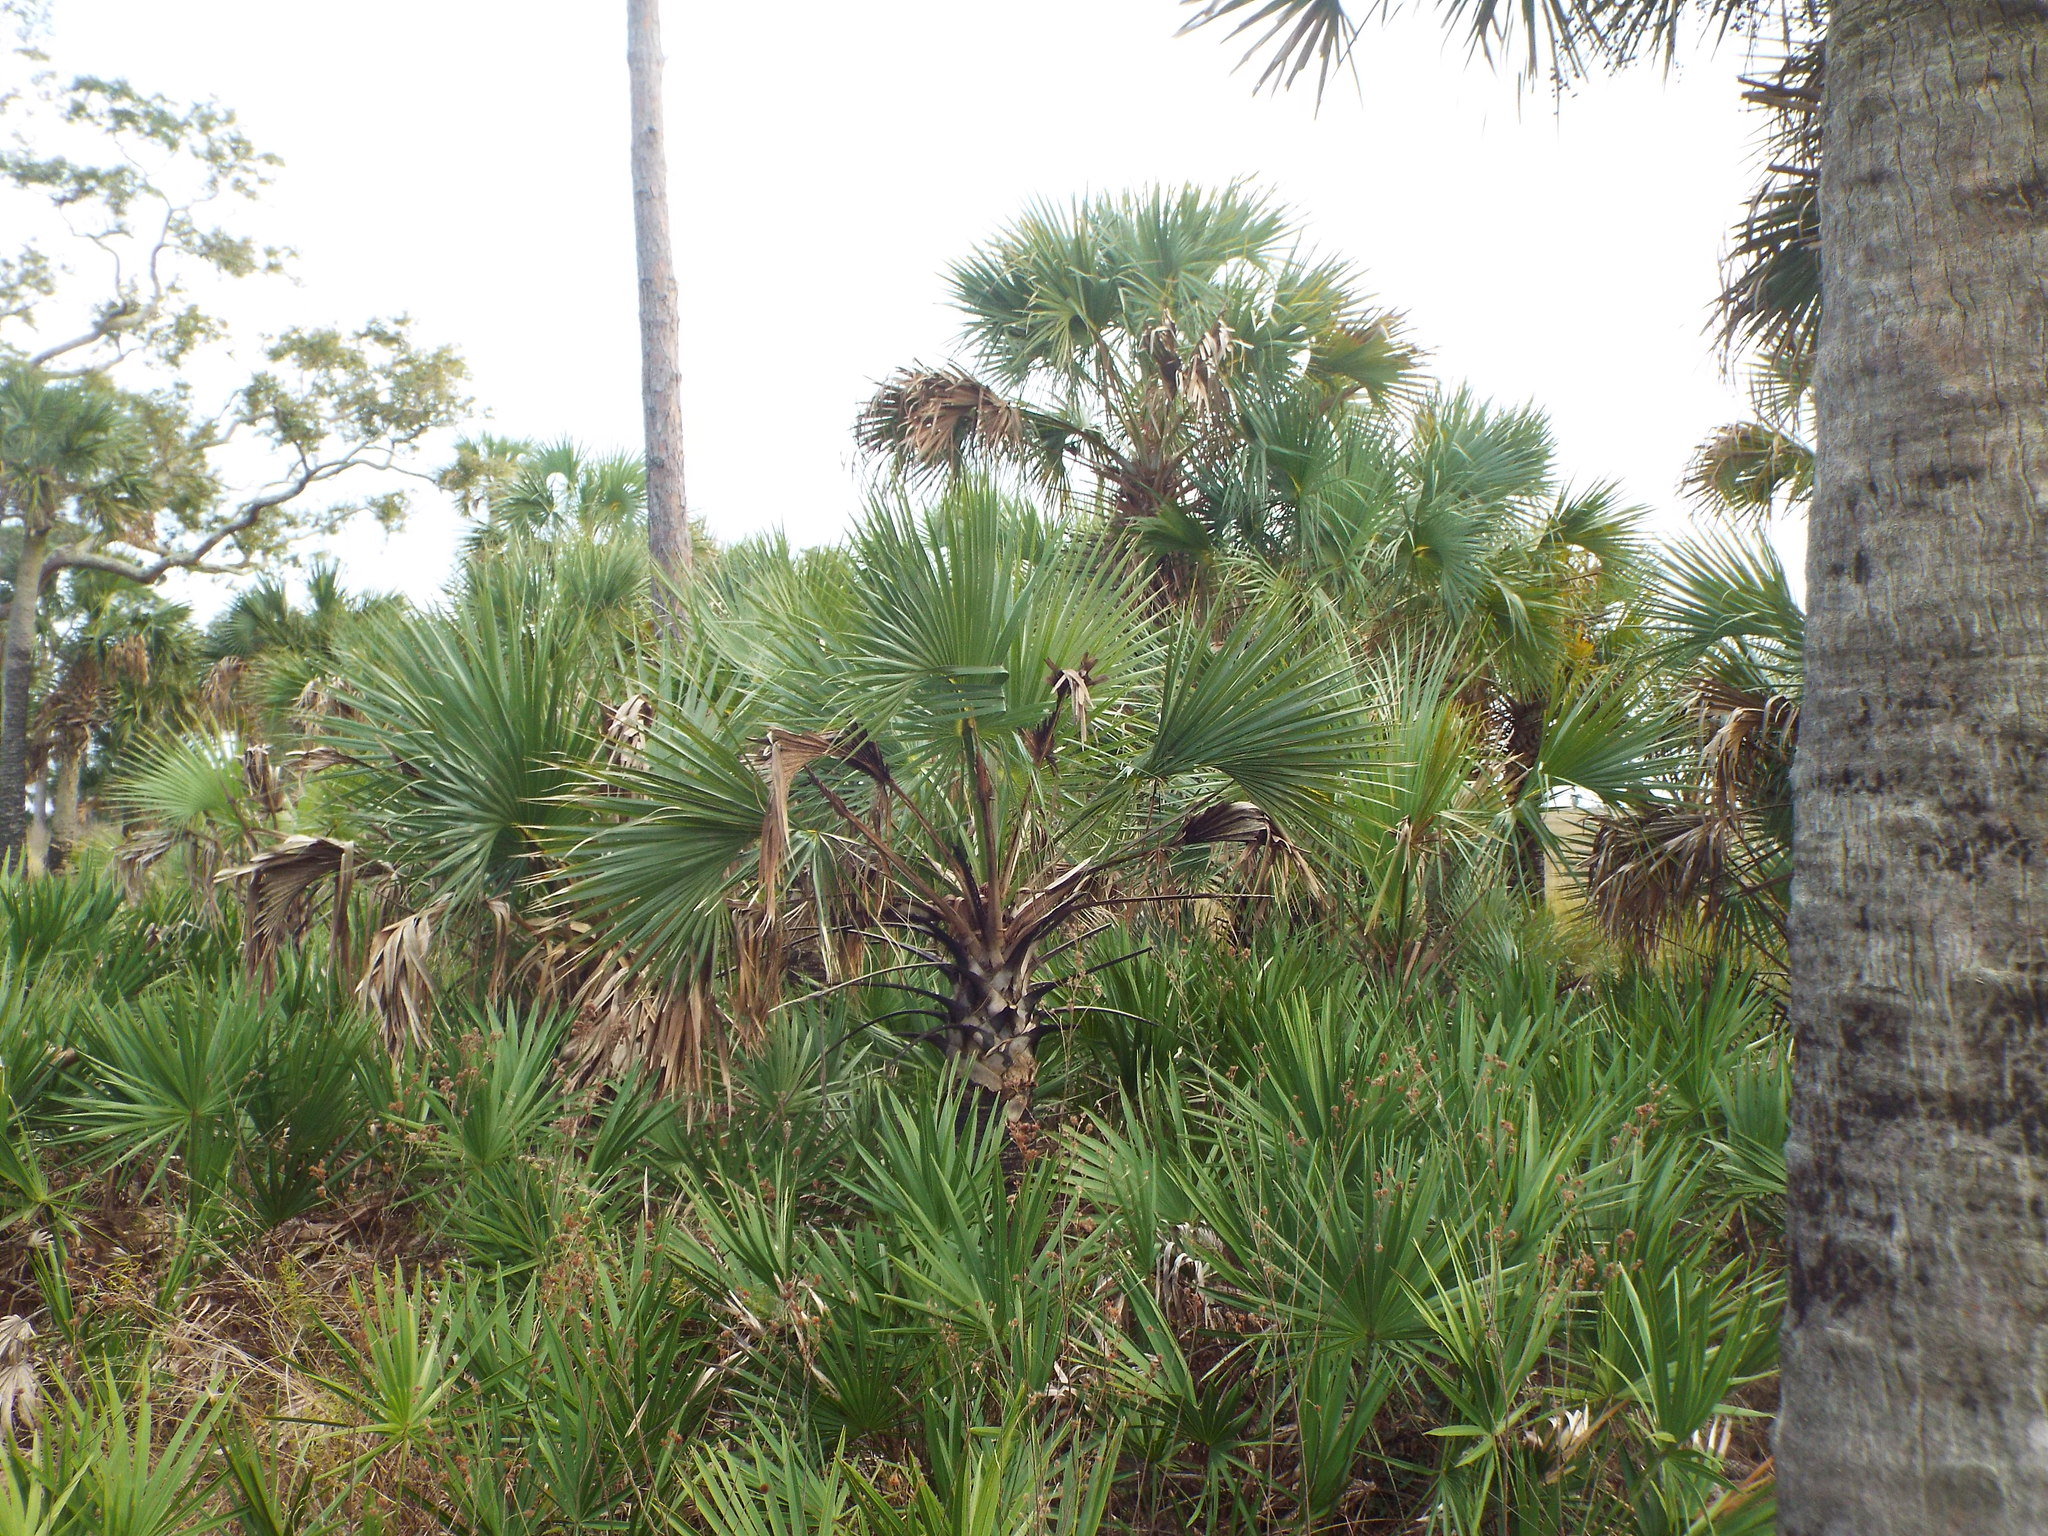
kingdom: Plantae
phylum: Tracheophyta
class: Liliopsida
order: Arecales
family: Arecaceae
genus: Sabal
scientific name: Sabal palmetto
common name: Blue palmetto
